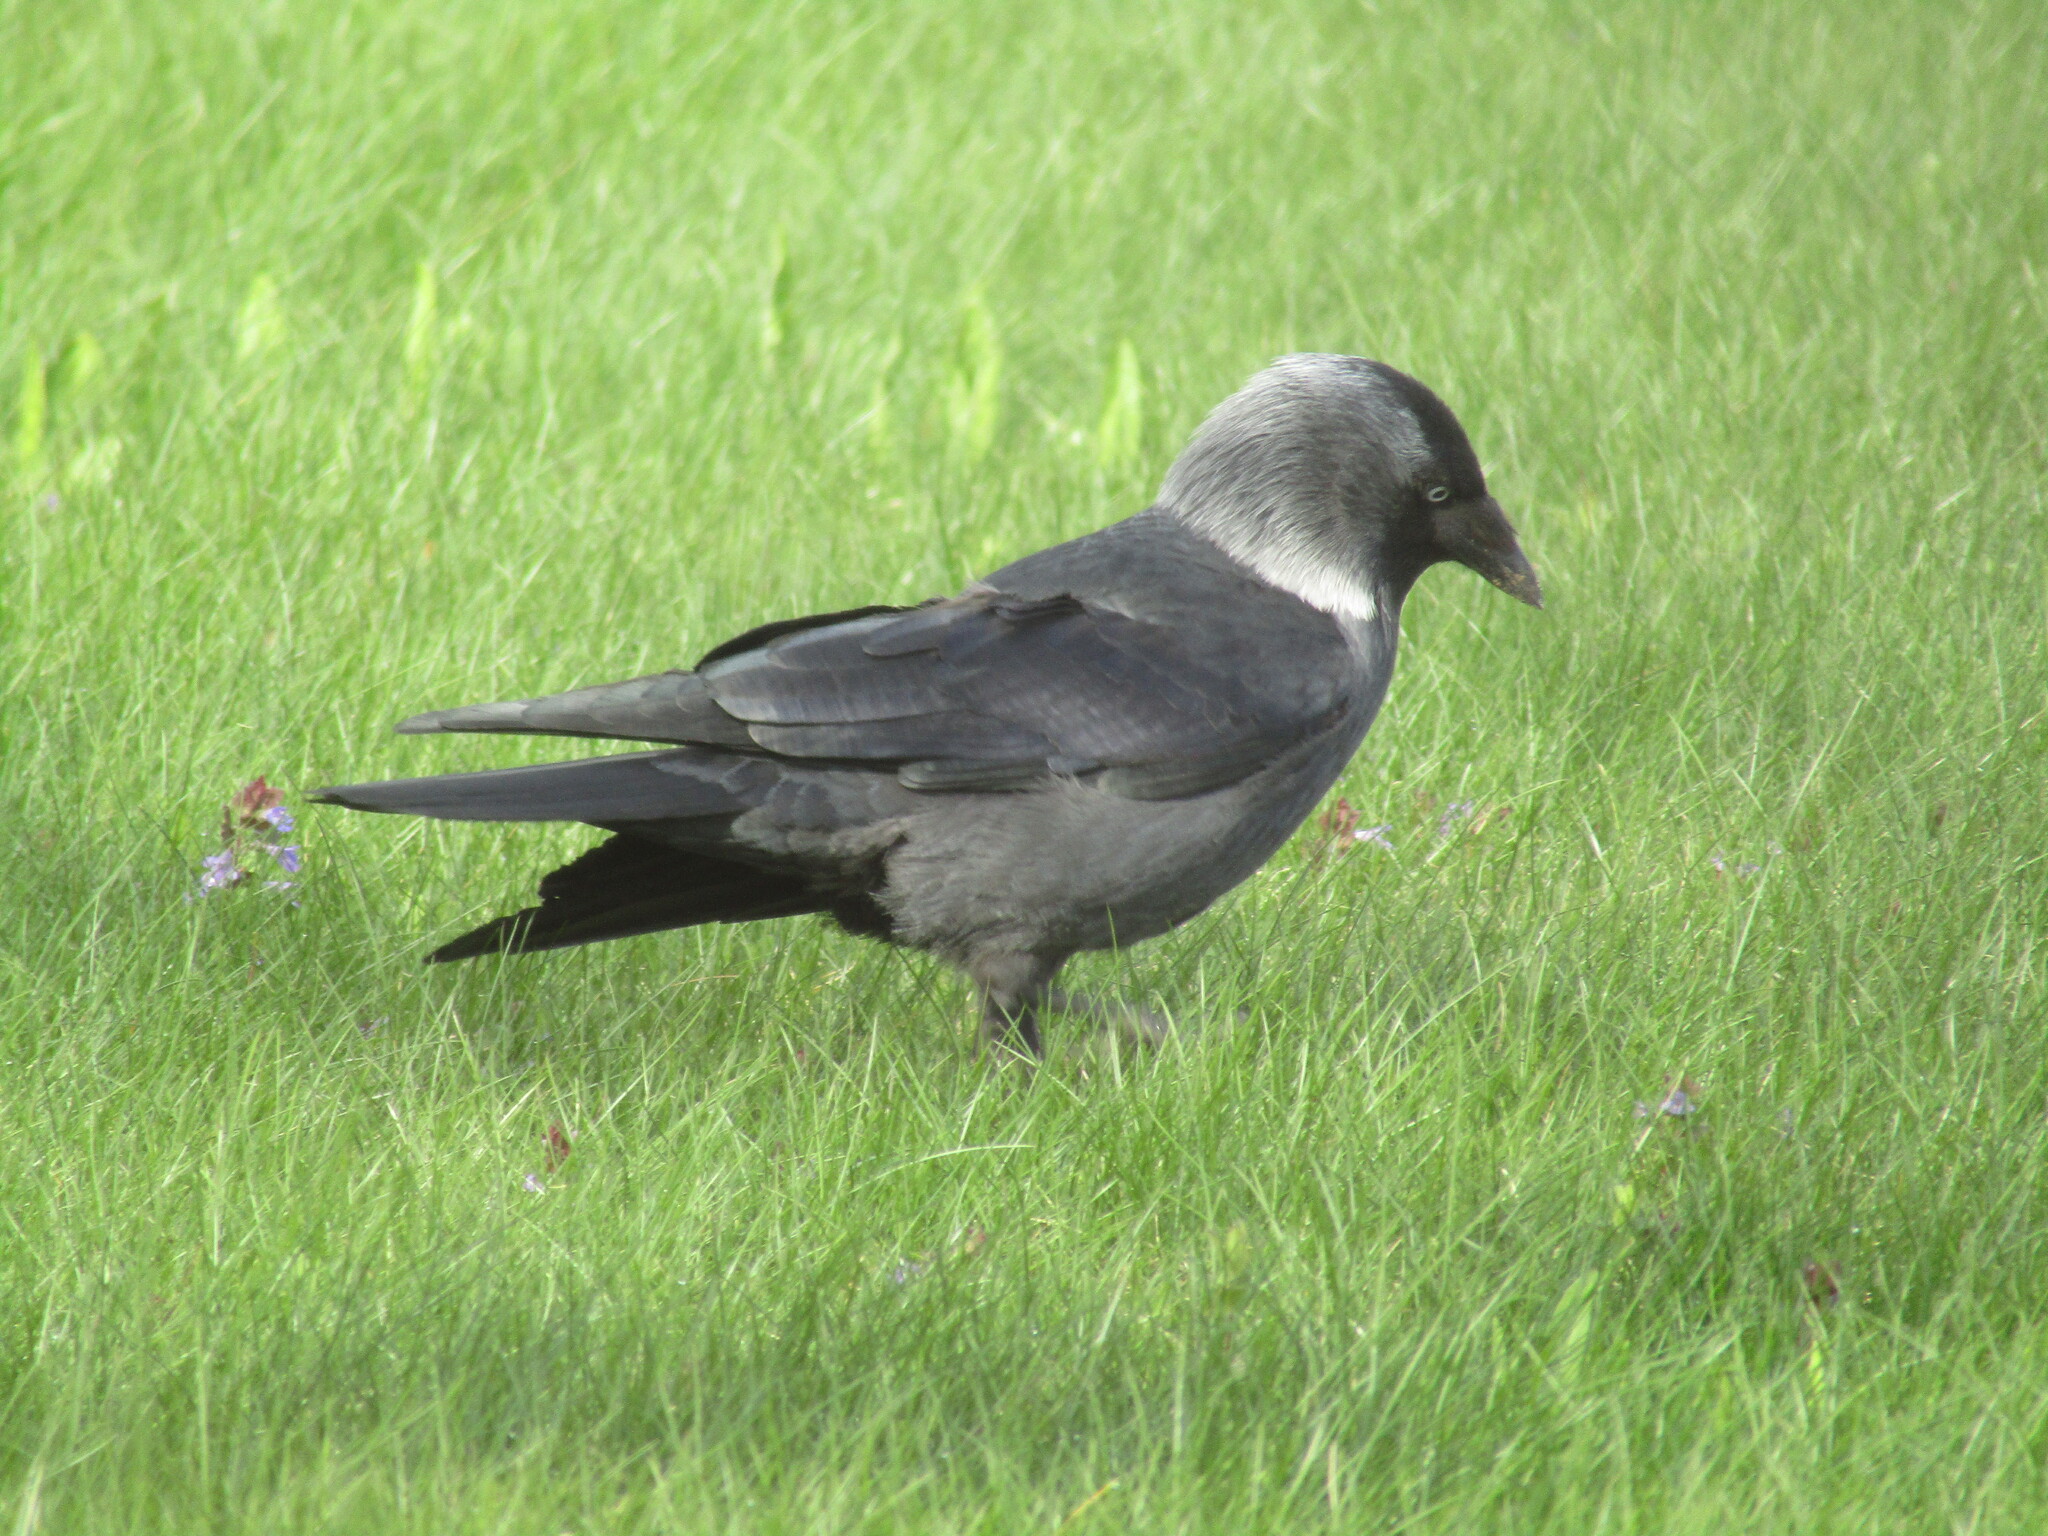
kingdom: Animalia
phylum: Chordata
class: Aves
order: Passeriformes
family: Corvidae
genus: Coloeus
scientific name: Coloeus monedula
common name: Western jackdaw
